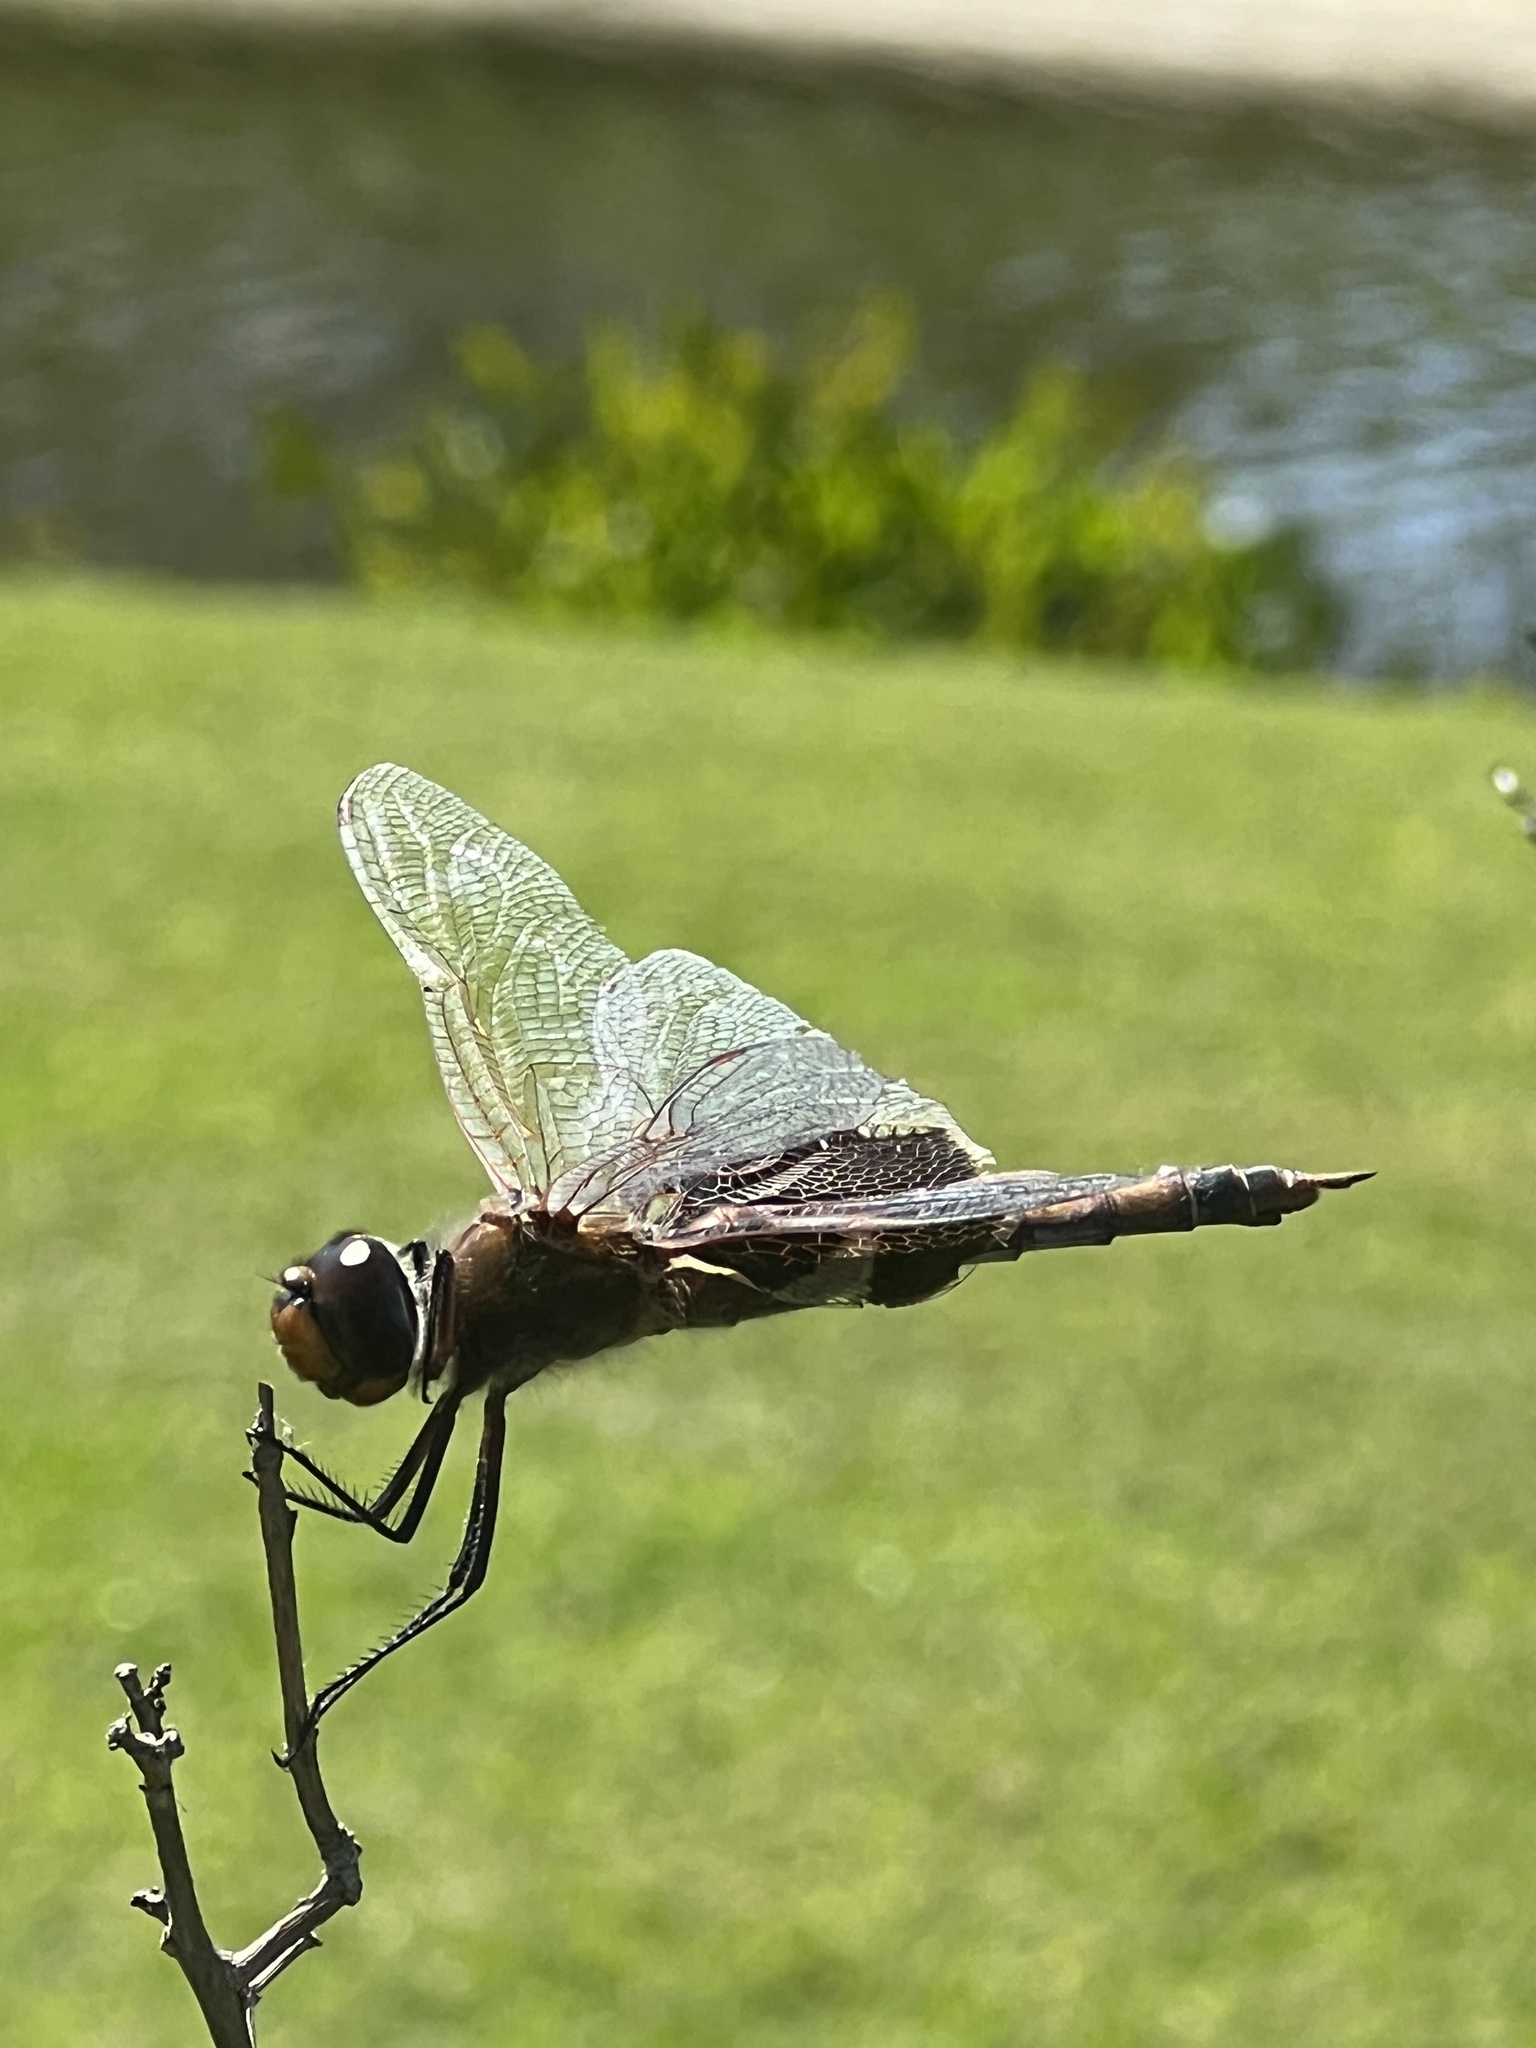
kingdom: Animalia
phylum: Arthropoda
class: Insecta
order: Odonata
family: Libellulidae
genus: Tramea
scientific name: Tramea carolina
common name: Carolina saddlebags
